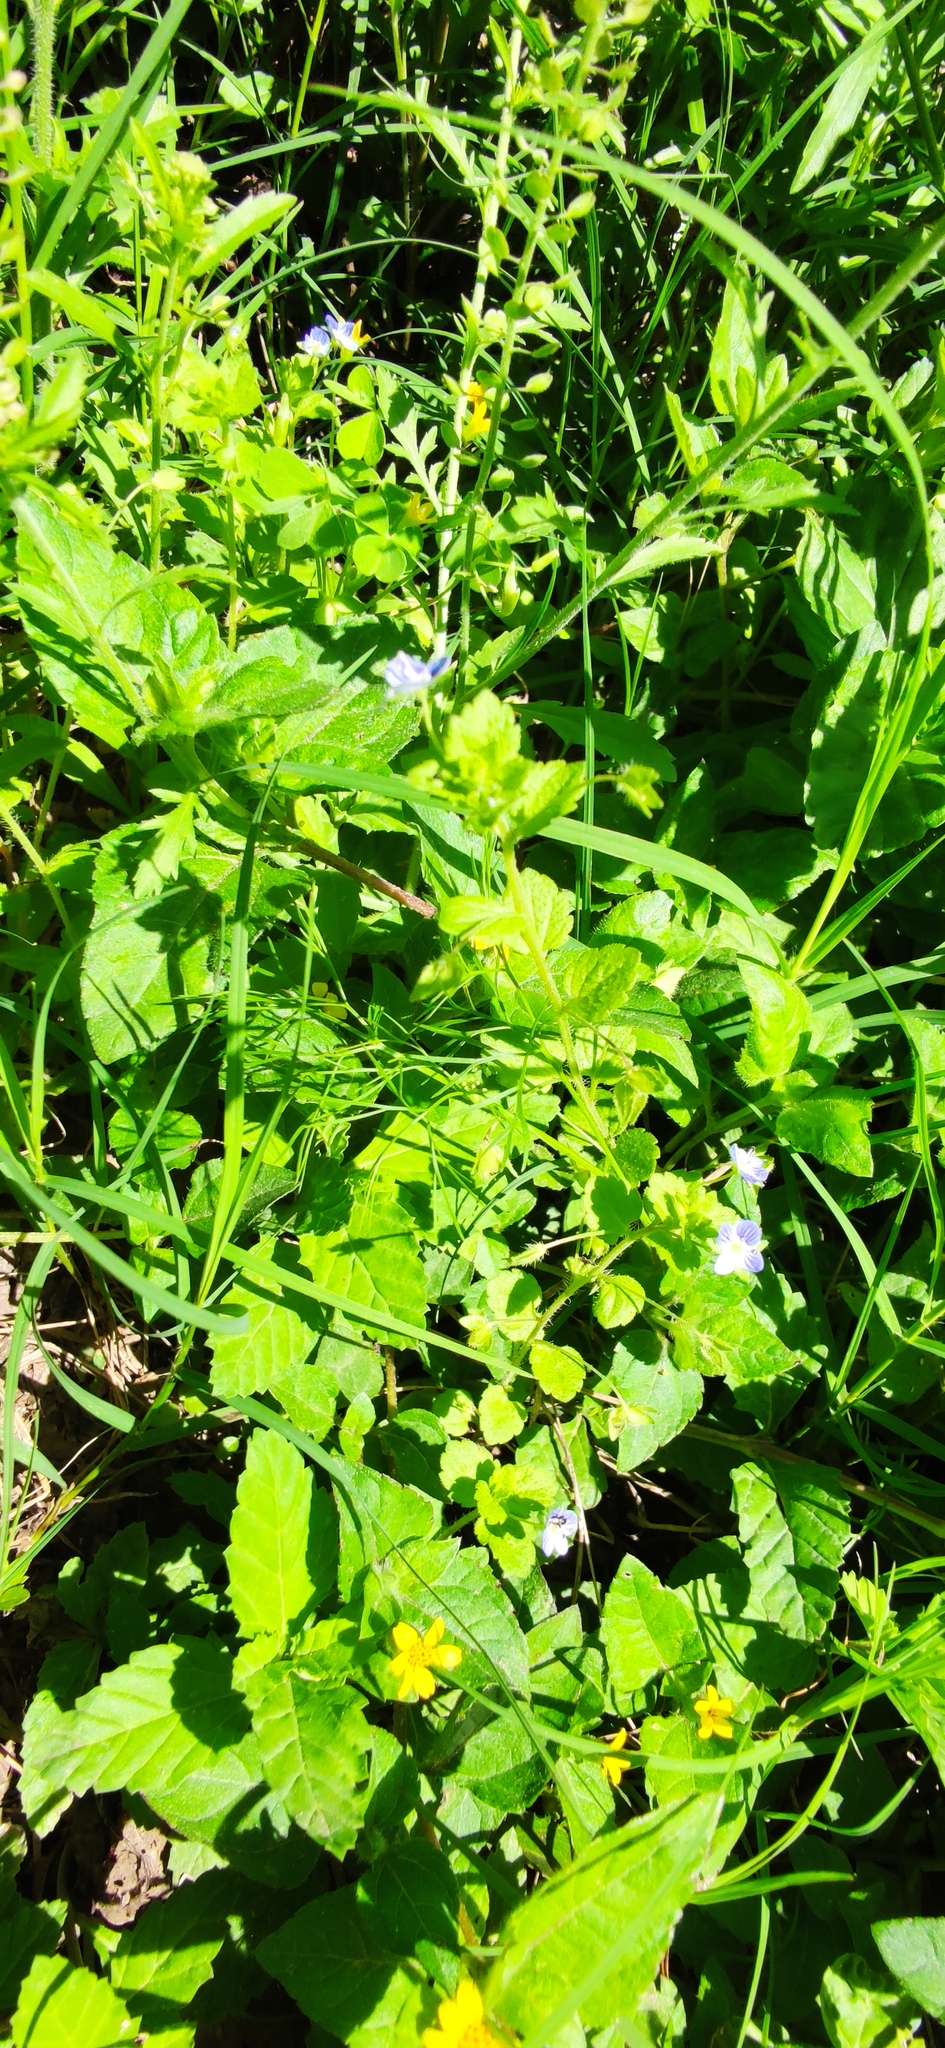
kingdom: Plantae
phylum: Tracheophyta
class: Magnoliopsida
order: Lamiales
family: Plantaginaceae
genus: Veronica
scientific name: Veronica persica
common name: Common field-speedwell
